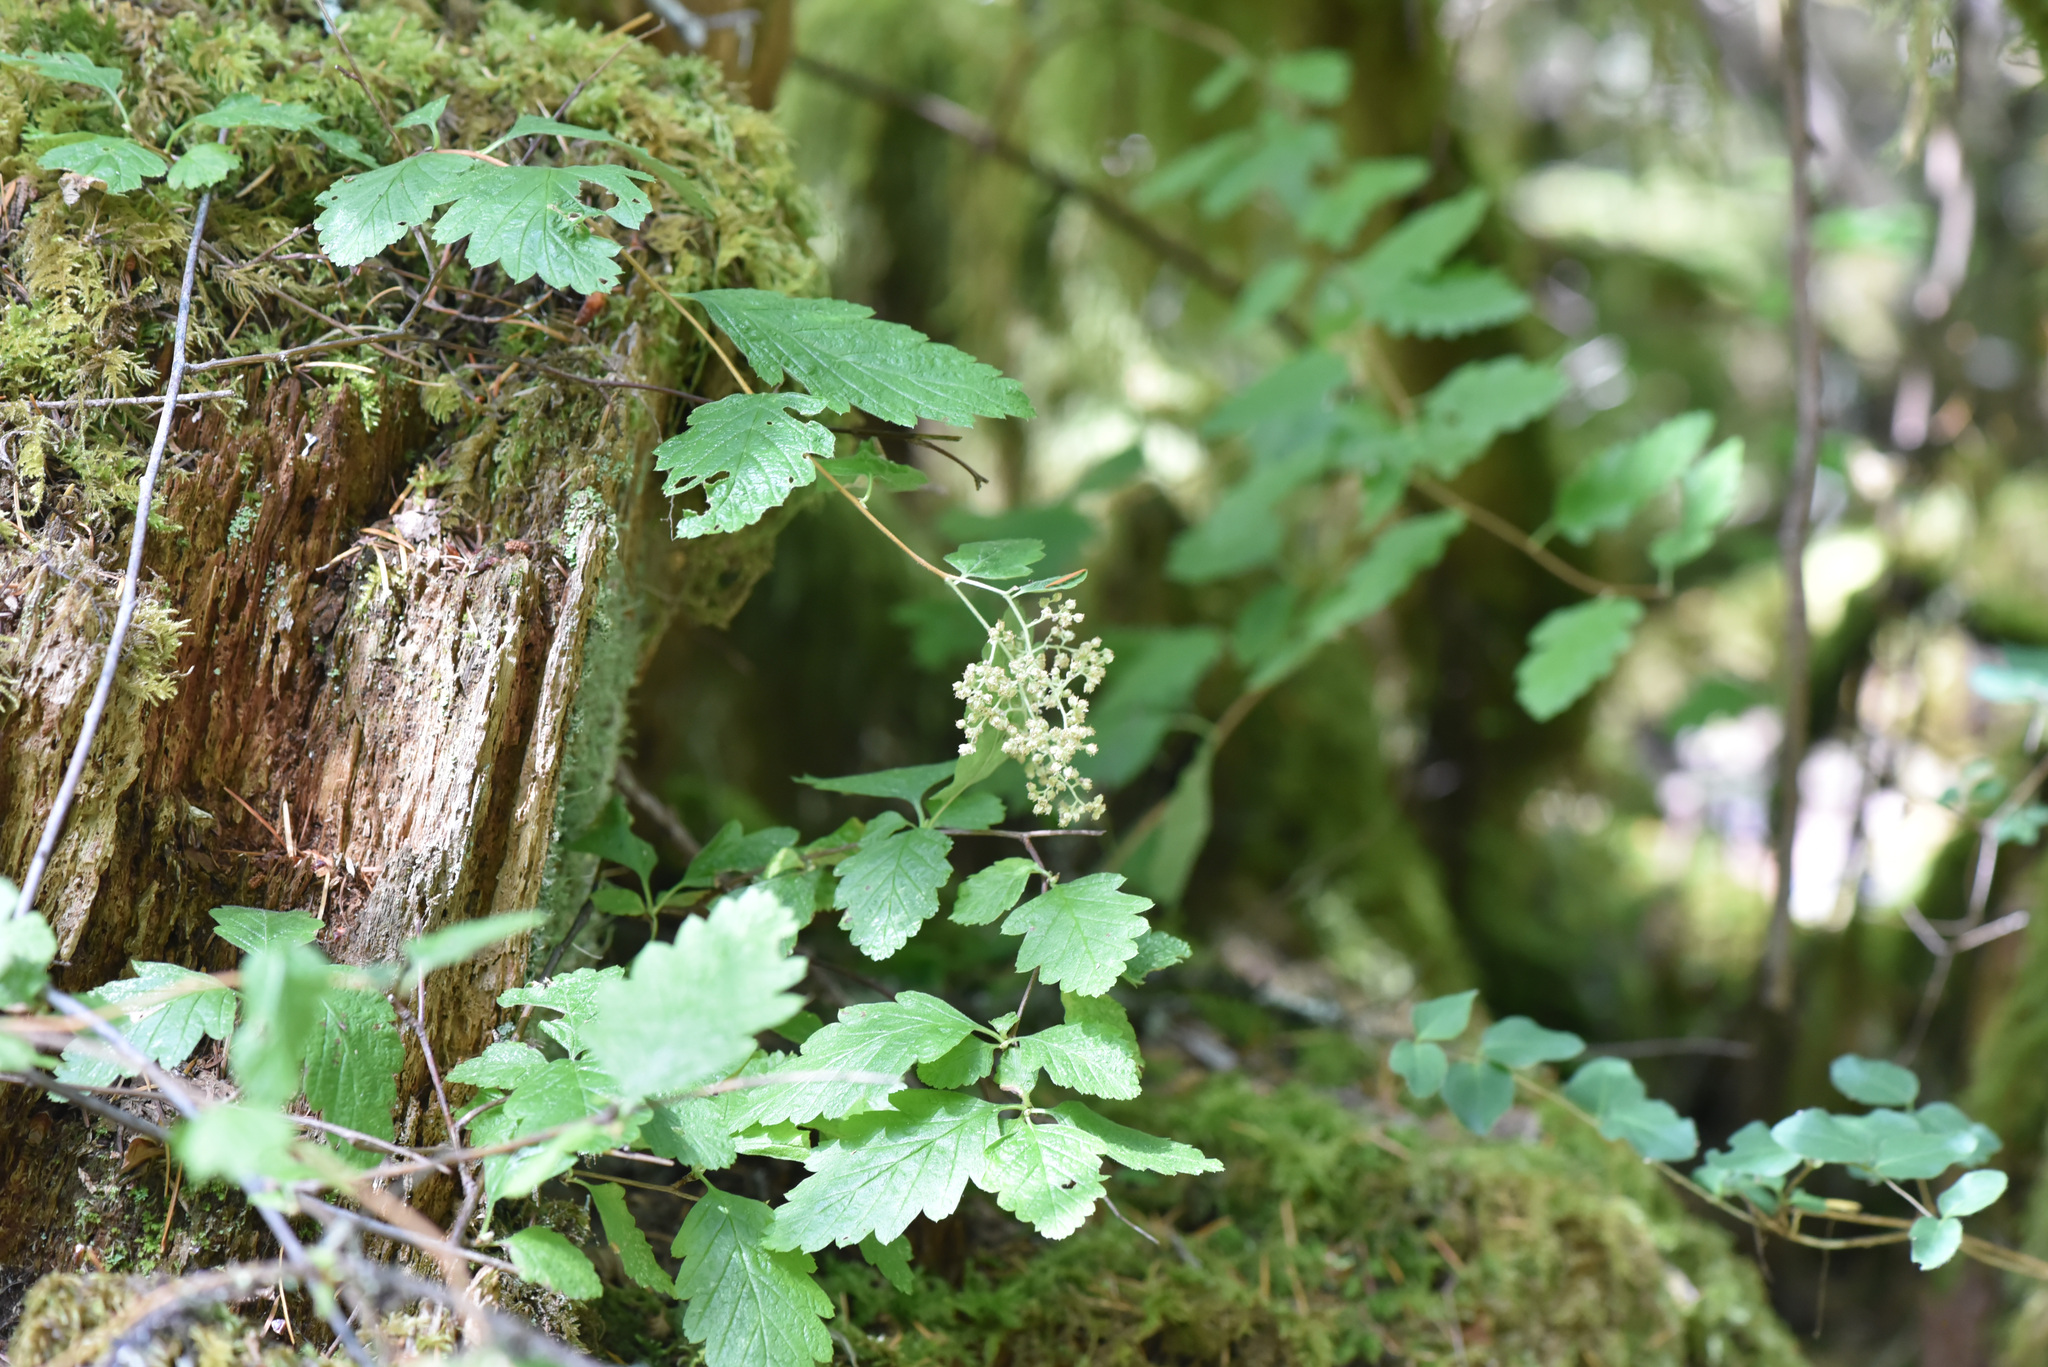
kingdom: Plantae
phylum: Tracheophyta
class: Magnoliopsida
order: Rosales
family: Rosaceae
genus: Holodiscus
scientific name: Holodiscus discolor
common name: Oceanspray
